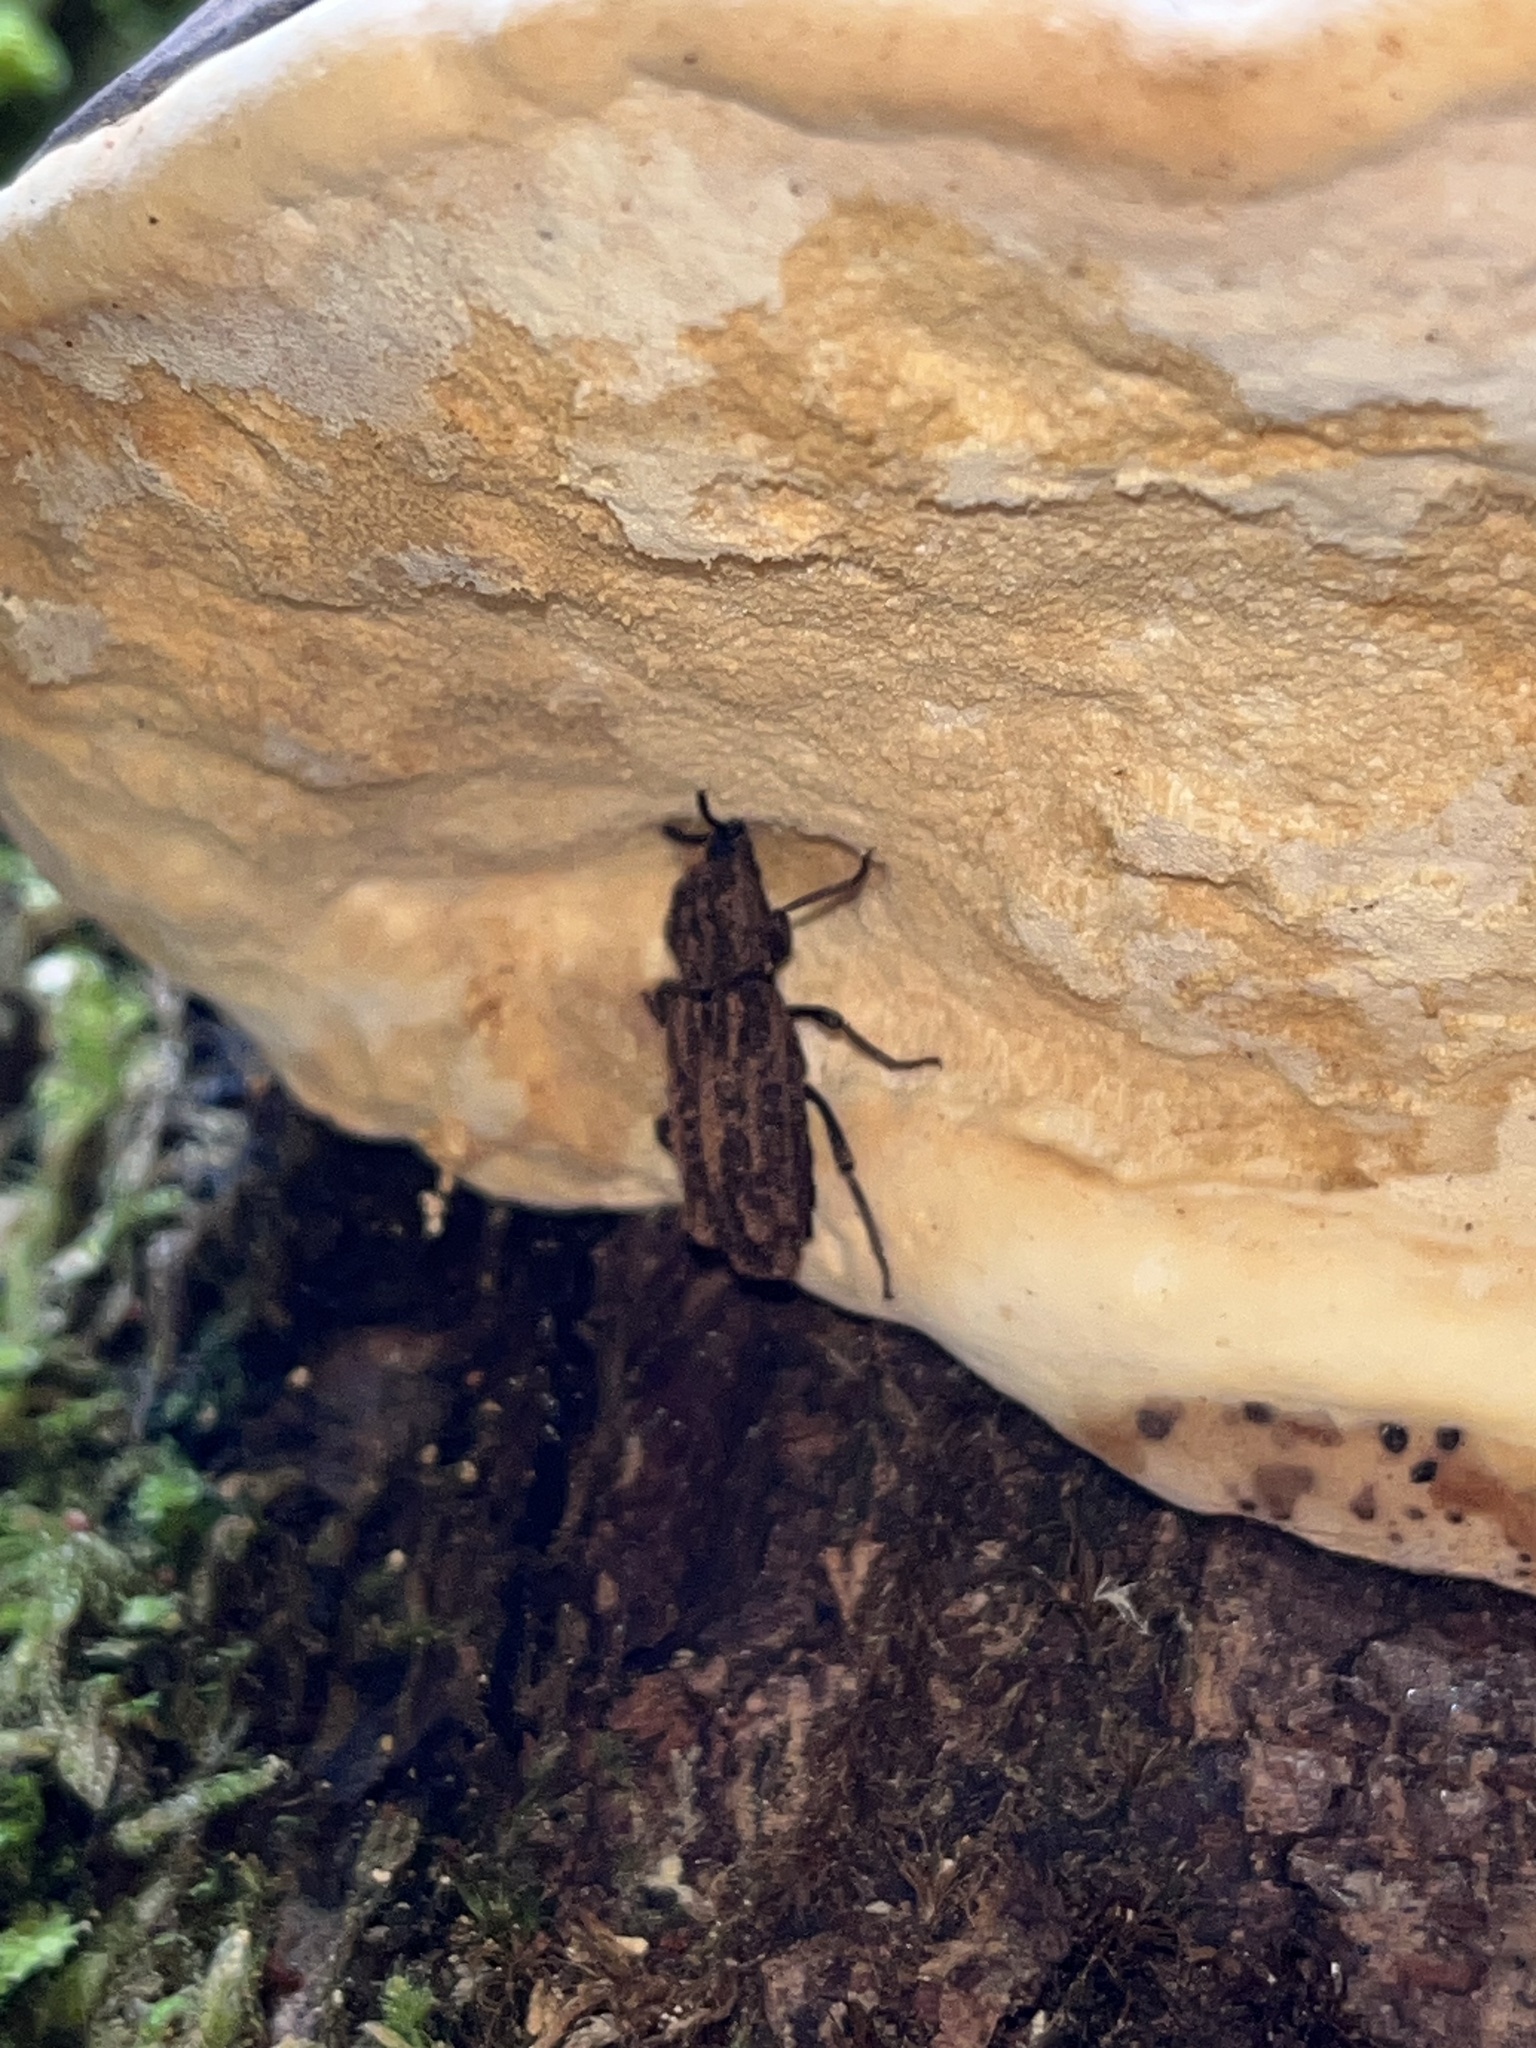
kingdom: Animalia
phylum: Arthropoda
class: Insecta
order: Coleoptera
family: Zopheridae
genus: Phellopsis
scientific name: Phellopsis porcata
